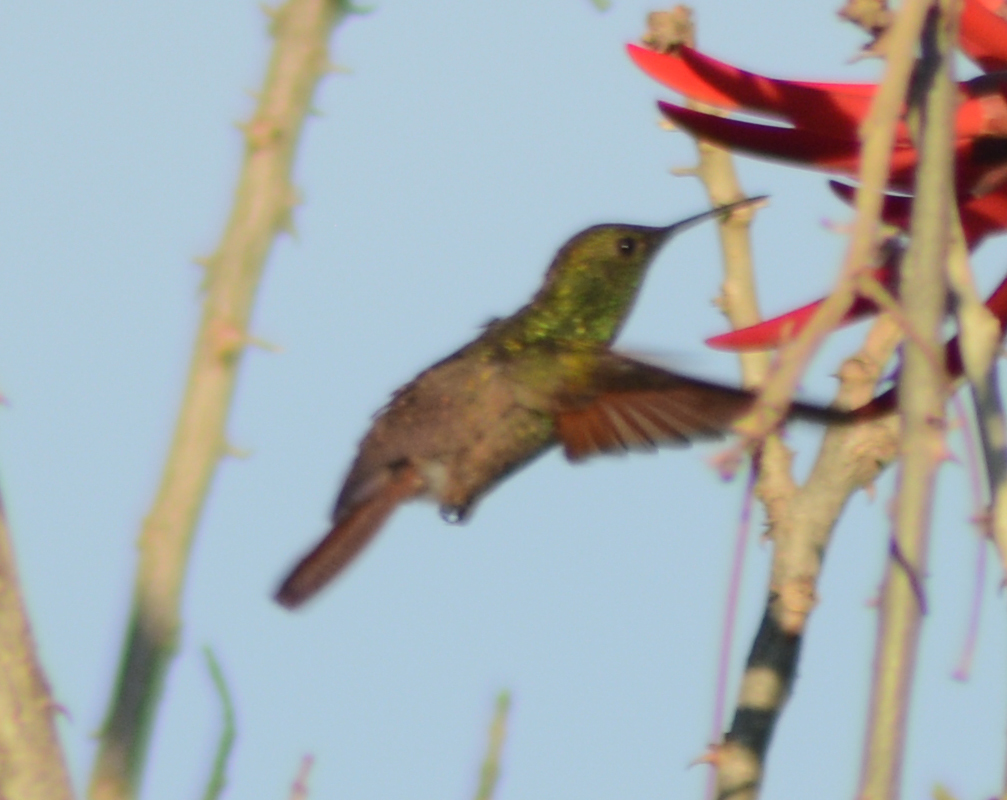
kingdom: Animalia
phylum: Chordata
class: Aves
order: Apodiformes
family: Trochilidae
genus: Saucerottia
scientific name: Saucerottia beryllina
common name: Berylline hummingbird
